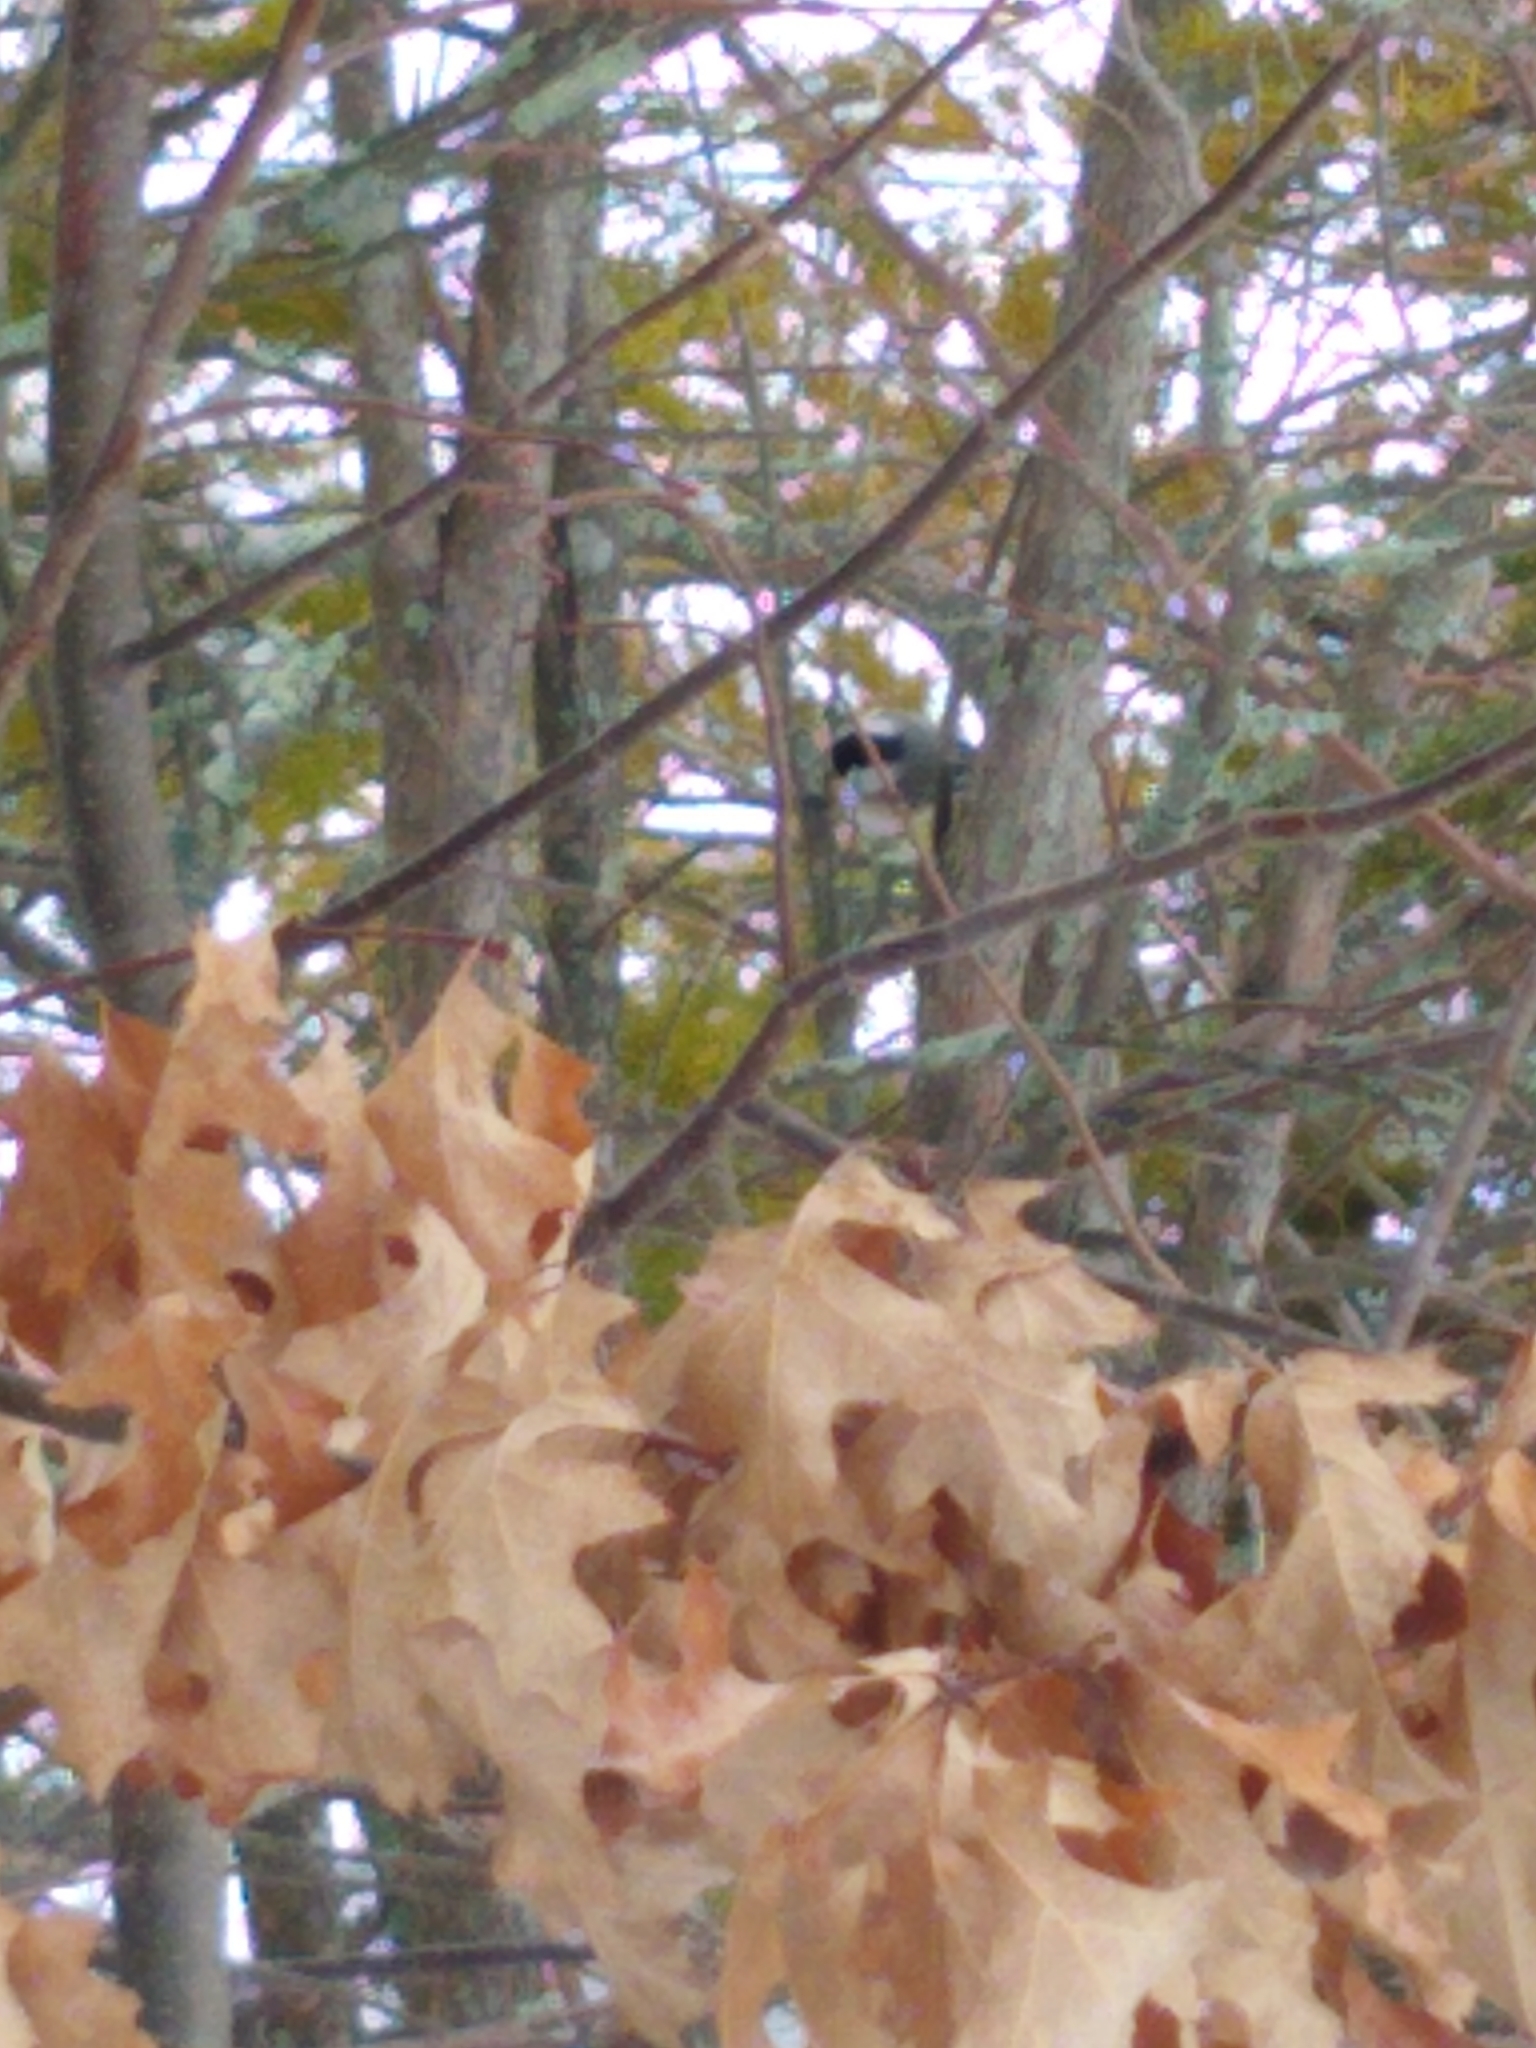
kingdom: Animalia
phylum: Chordata
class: Aves
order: Passeriformes
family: Paridae
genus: Poecile
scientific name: Poecile atricapillus
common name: Black-capped chickadee
